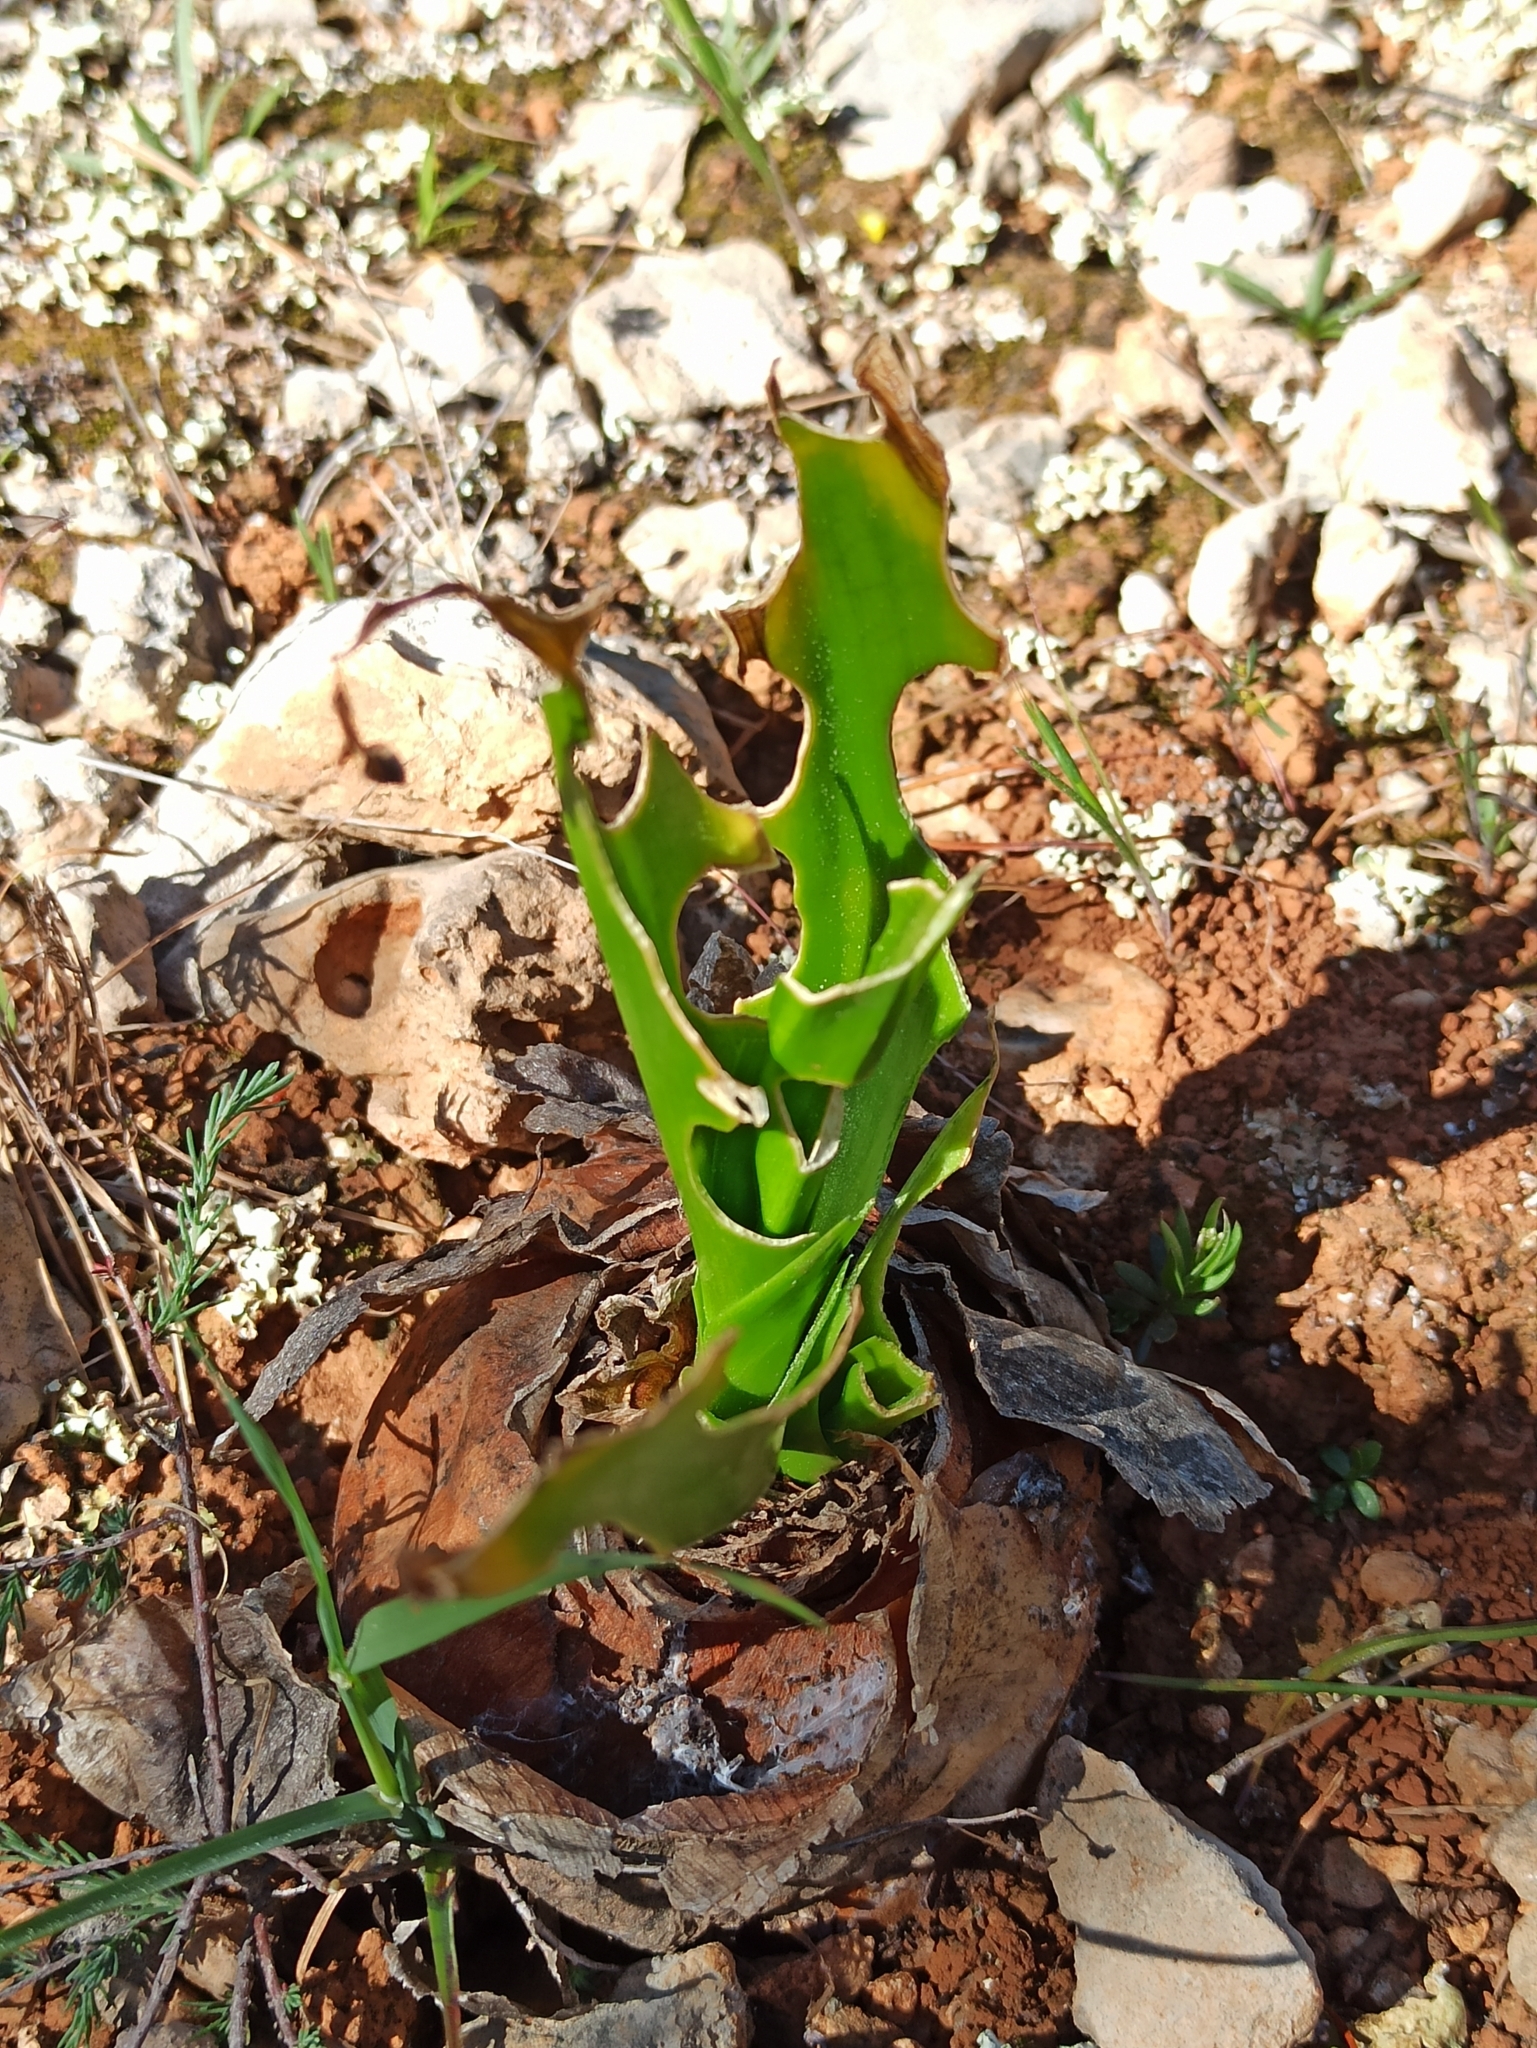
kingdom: Plantae
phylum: Tracheophyta
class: Liliopsida
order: Asparagales
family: Asparagaceae
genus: Drimia
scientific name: Drimia maritima
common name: Maritime squill
